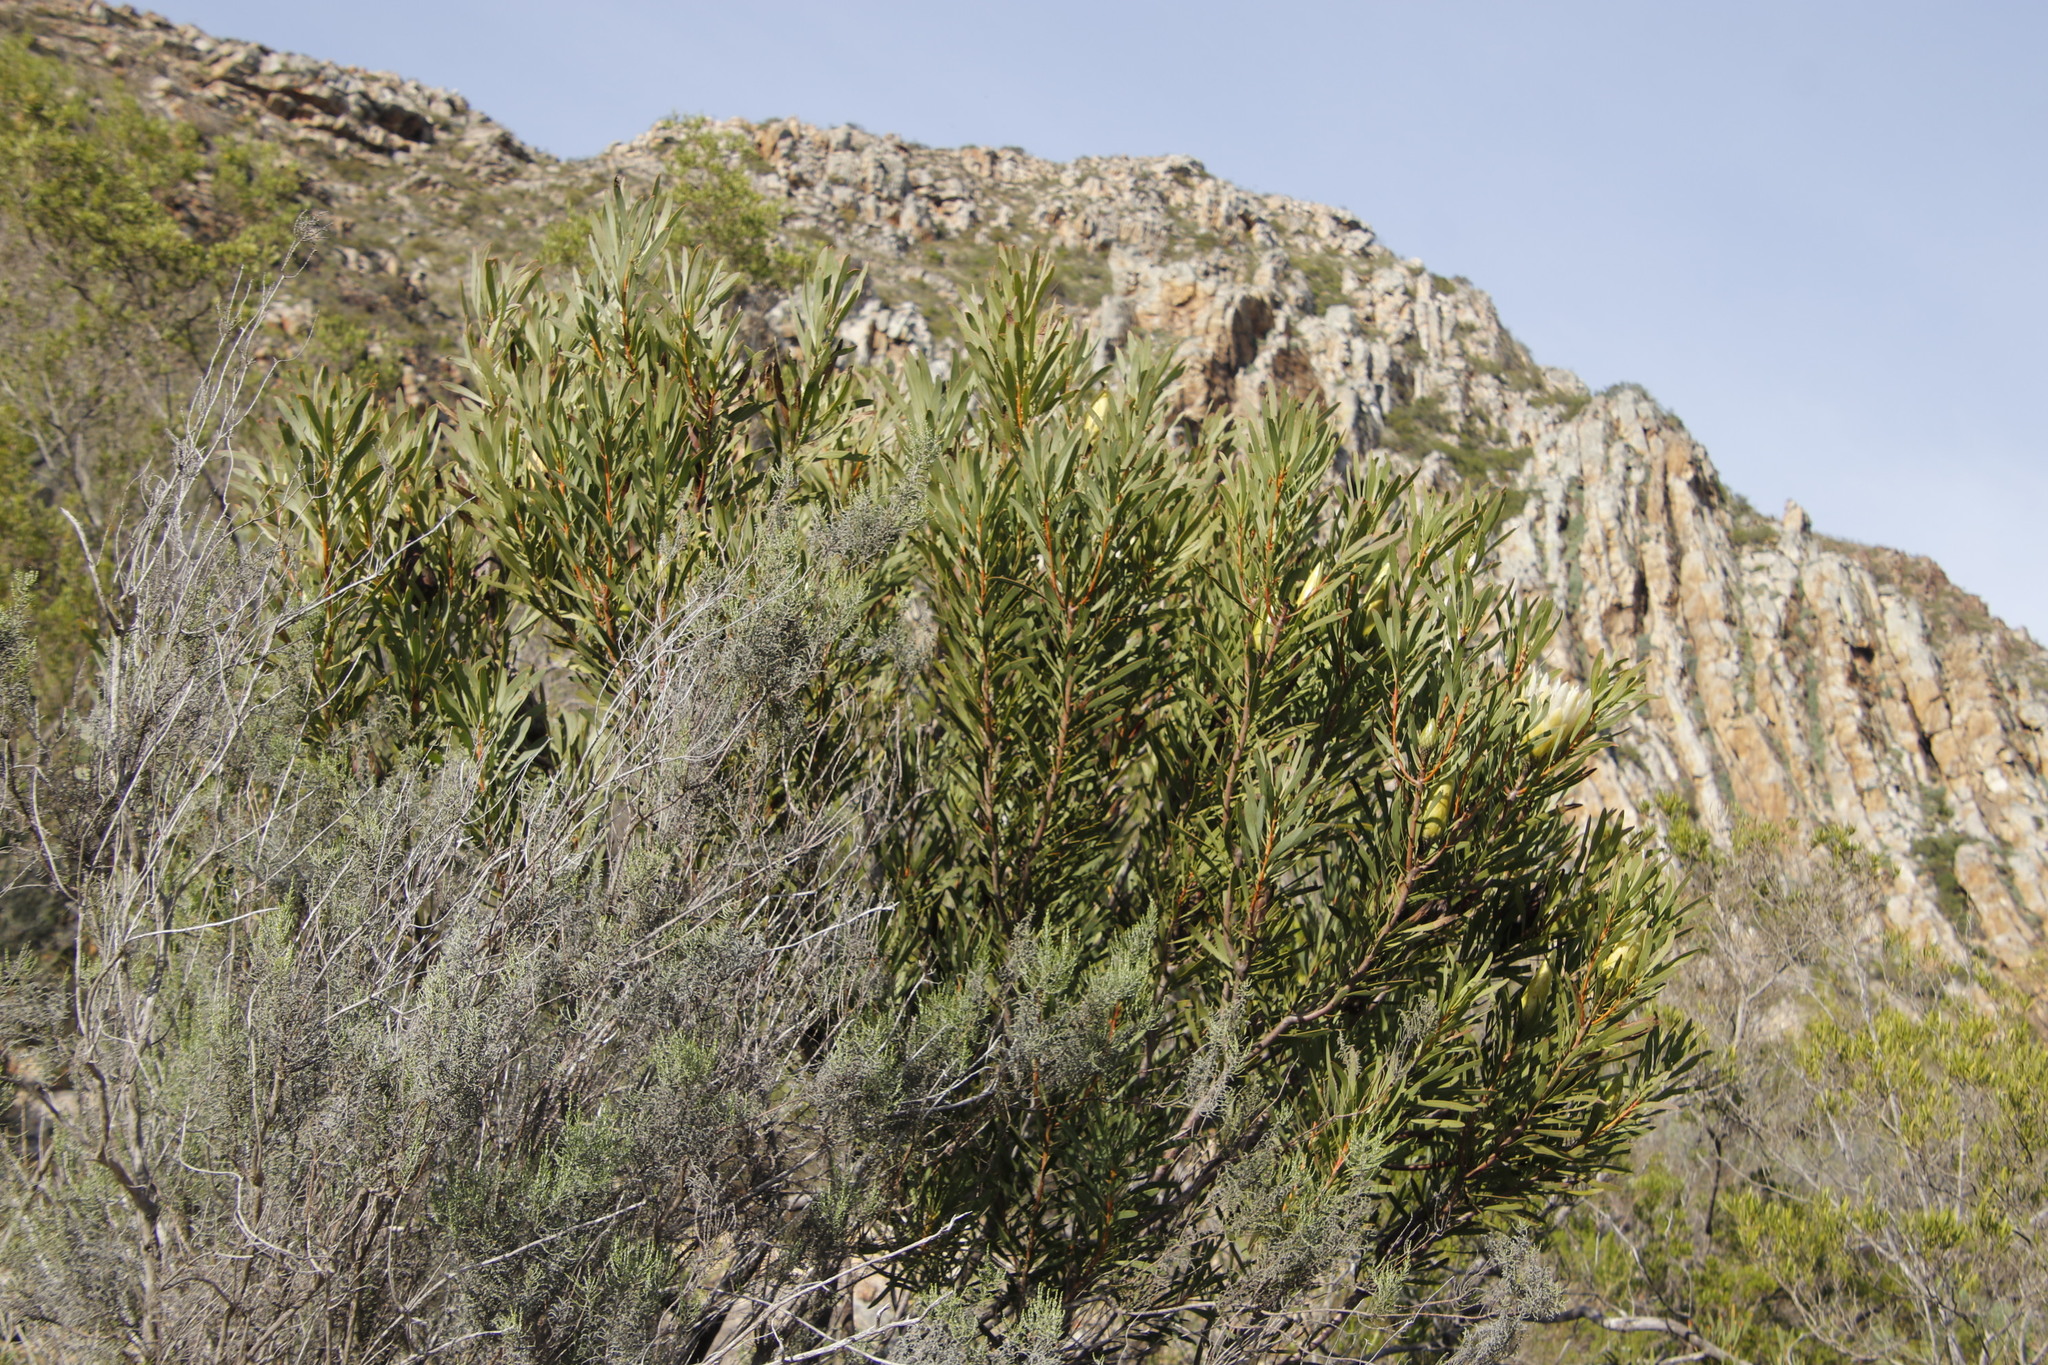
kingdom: Plantae
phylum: Tracheophyta
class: Magnoliopsida
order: Proteales
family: Proteaceae
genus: Protea
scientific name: Protea repens
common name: Sugarbush
